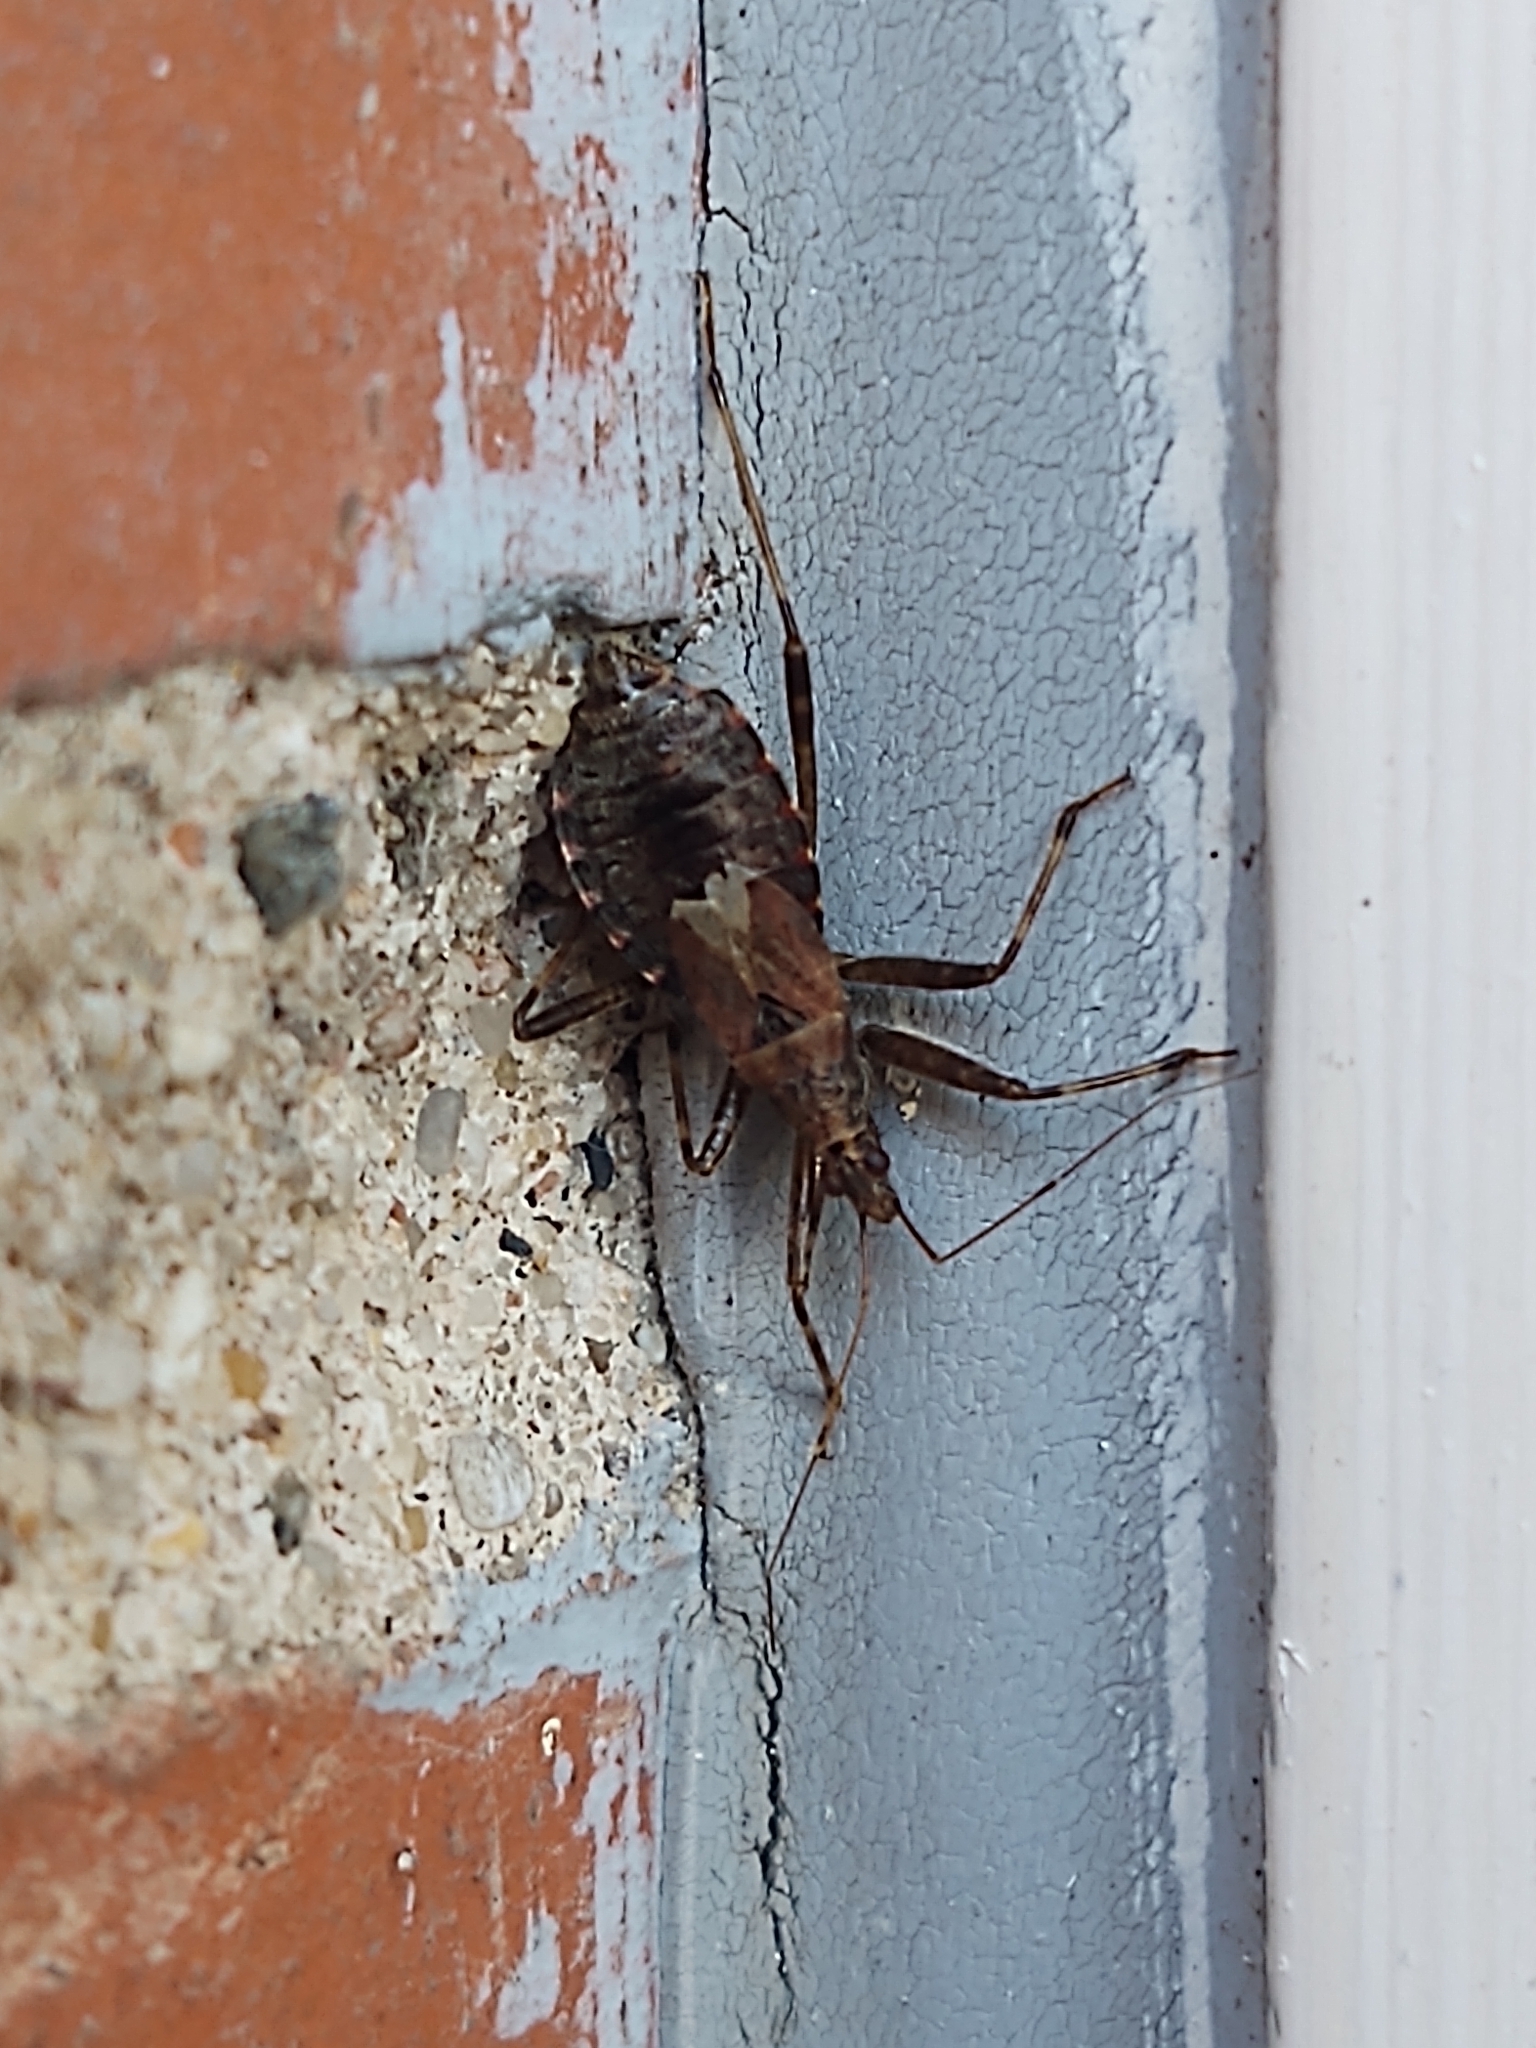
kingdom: Animalia
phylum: Arthropoda
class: Insecta
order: Hemiptera
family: Nabidae
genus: Himacerus
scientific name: Himacerus apterus
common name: Tree damsel bug
